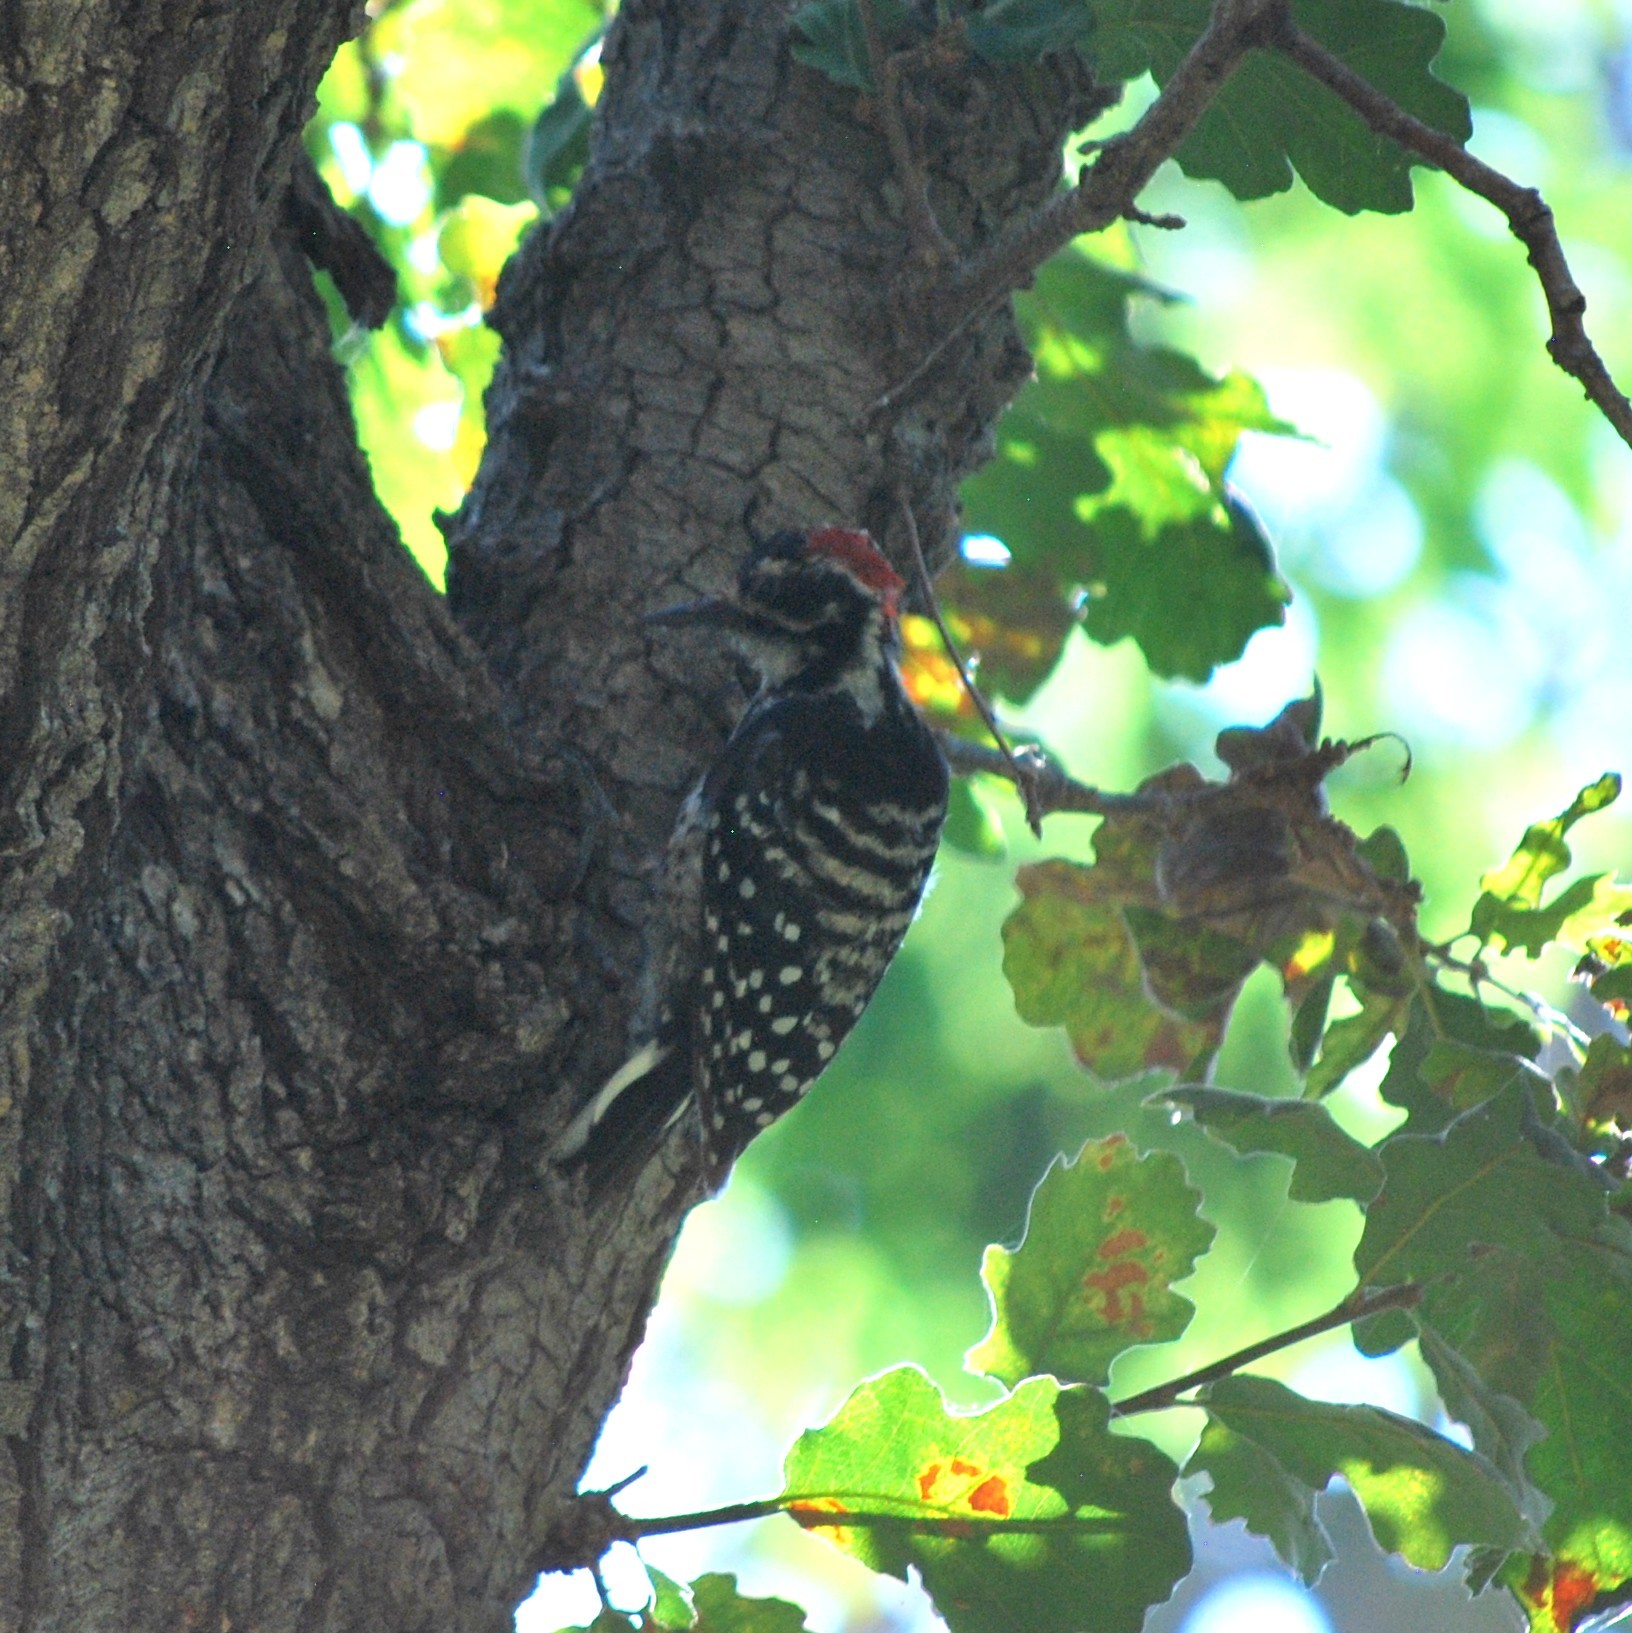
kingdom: Animalia
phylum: Chordata
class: Aves
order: Piciformes
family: Picidae
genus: Dryobates
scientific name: Dryobates nuttallii
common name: Nuttall's woodpecker
